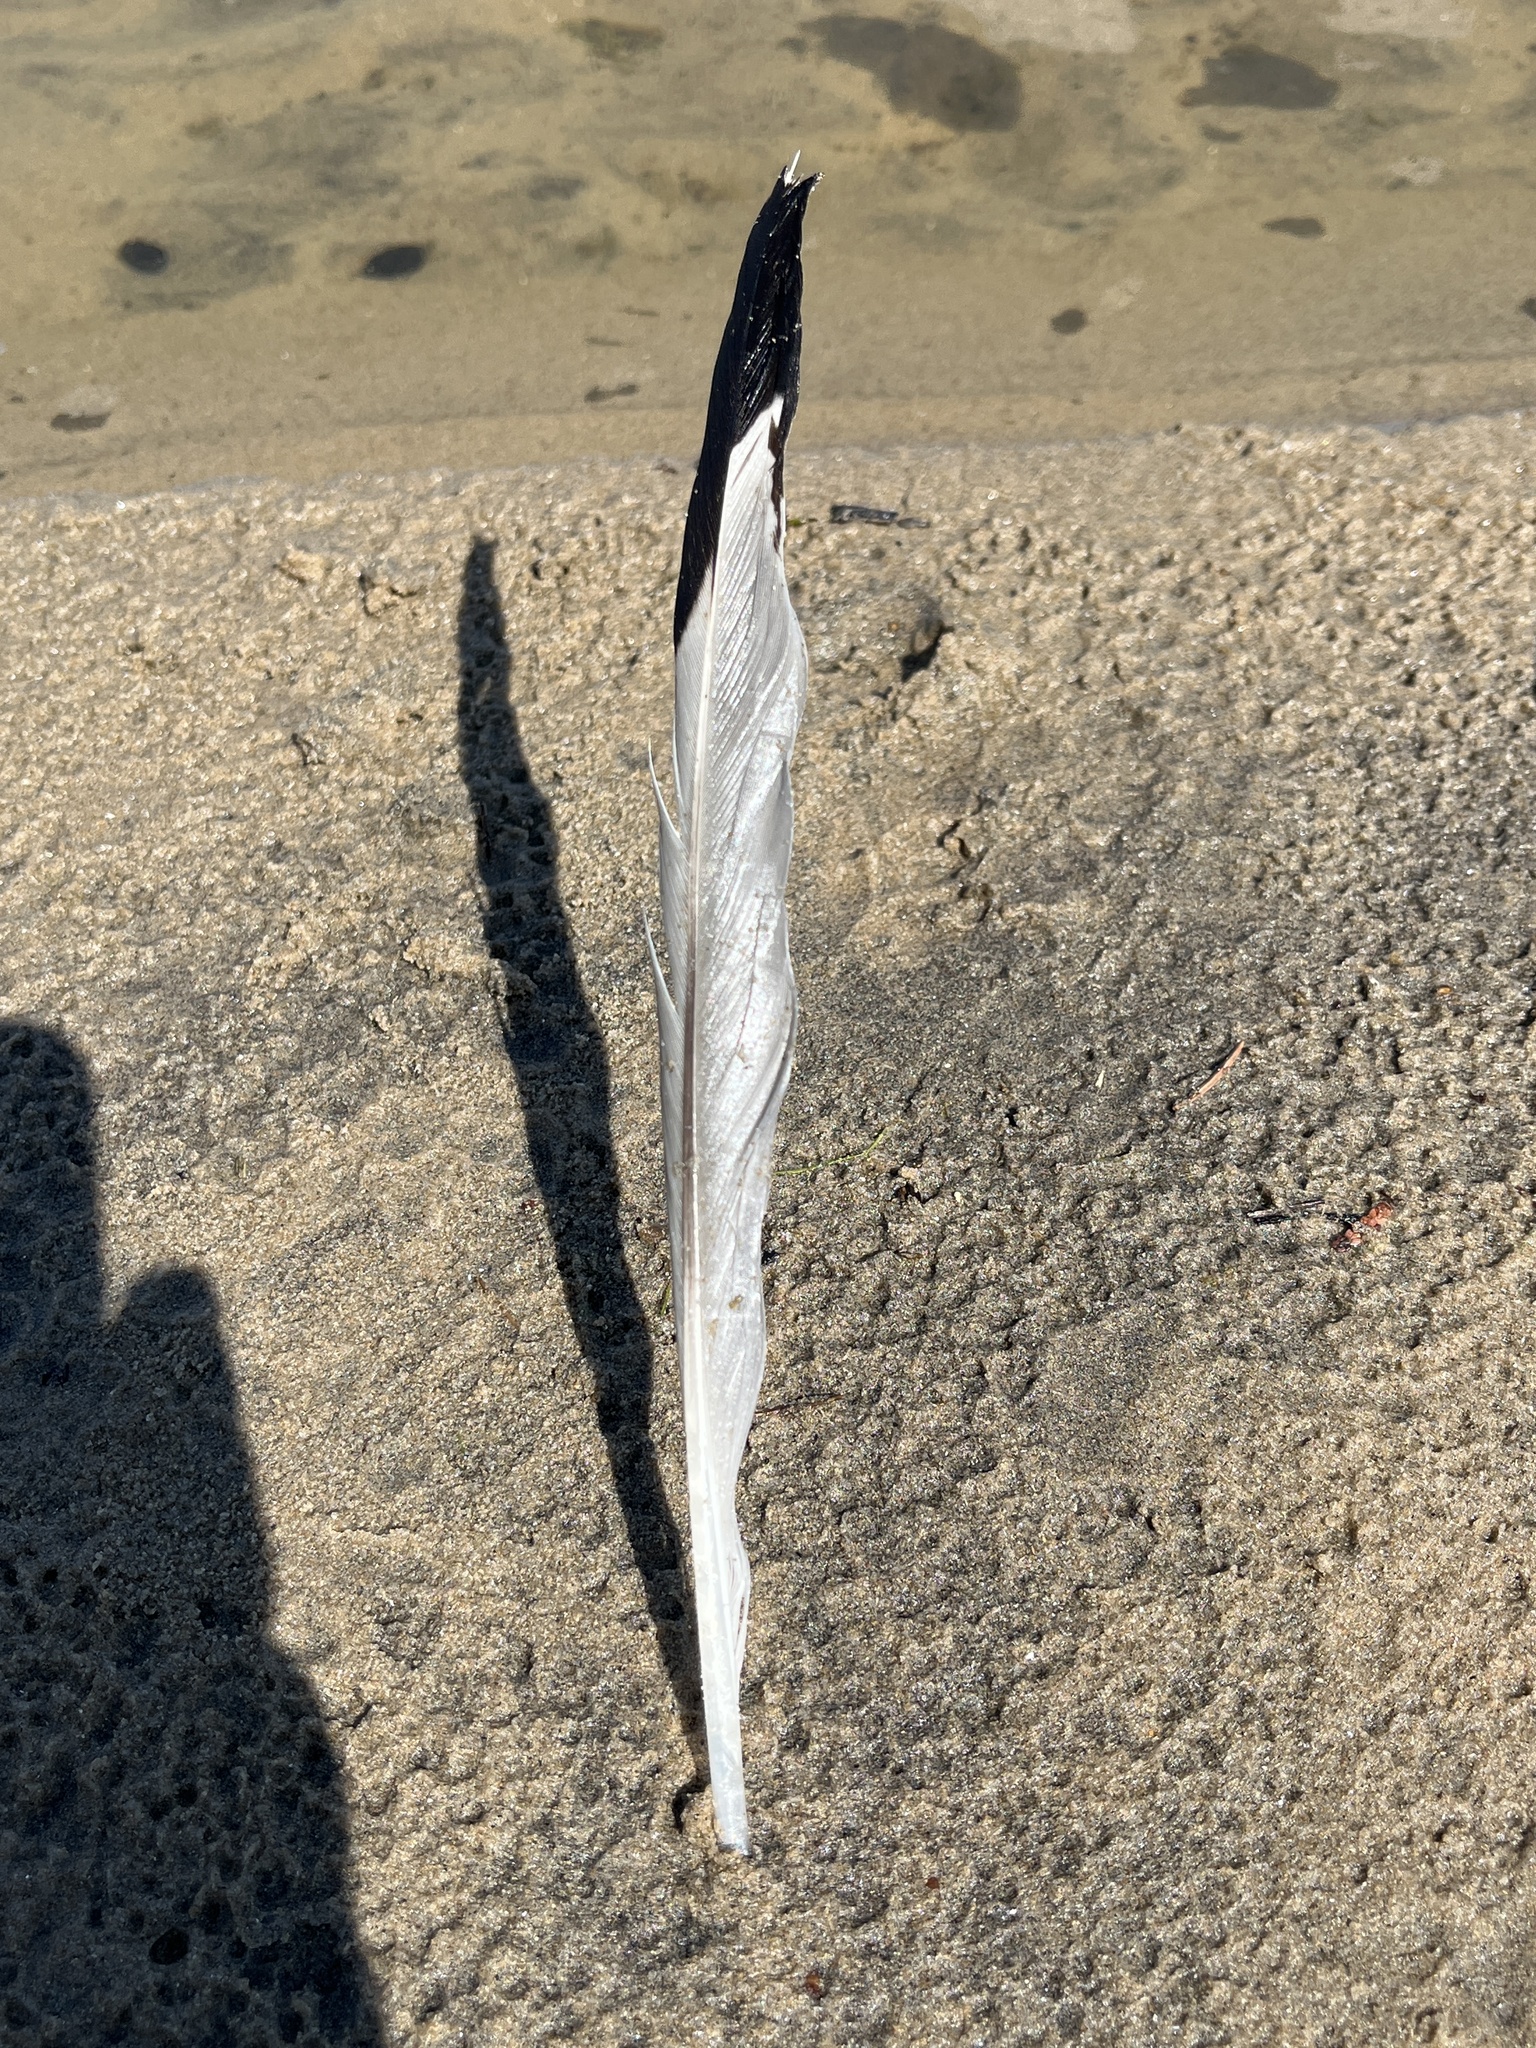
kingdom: Animalia
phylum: Chordata
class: Aves
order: Charadriiformes
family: Laridae
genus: Larus
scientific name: Larus delawarensis
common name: Ring-billed gull
